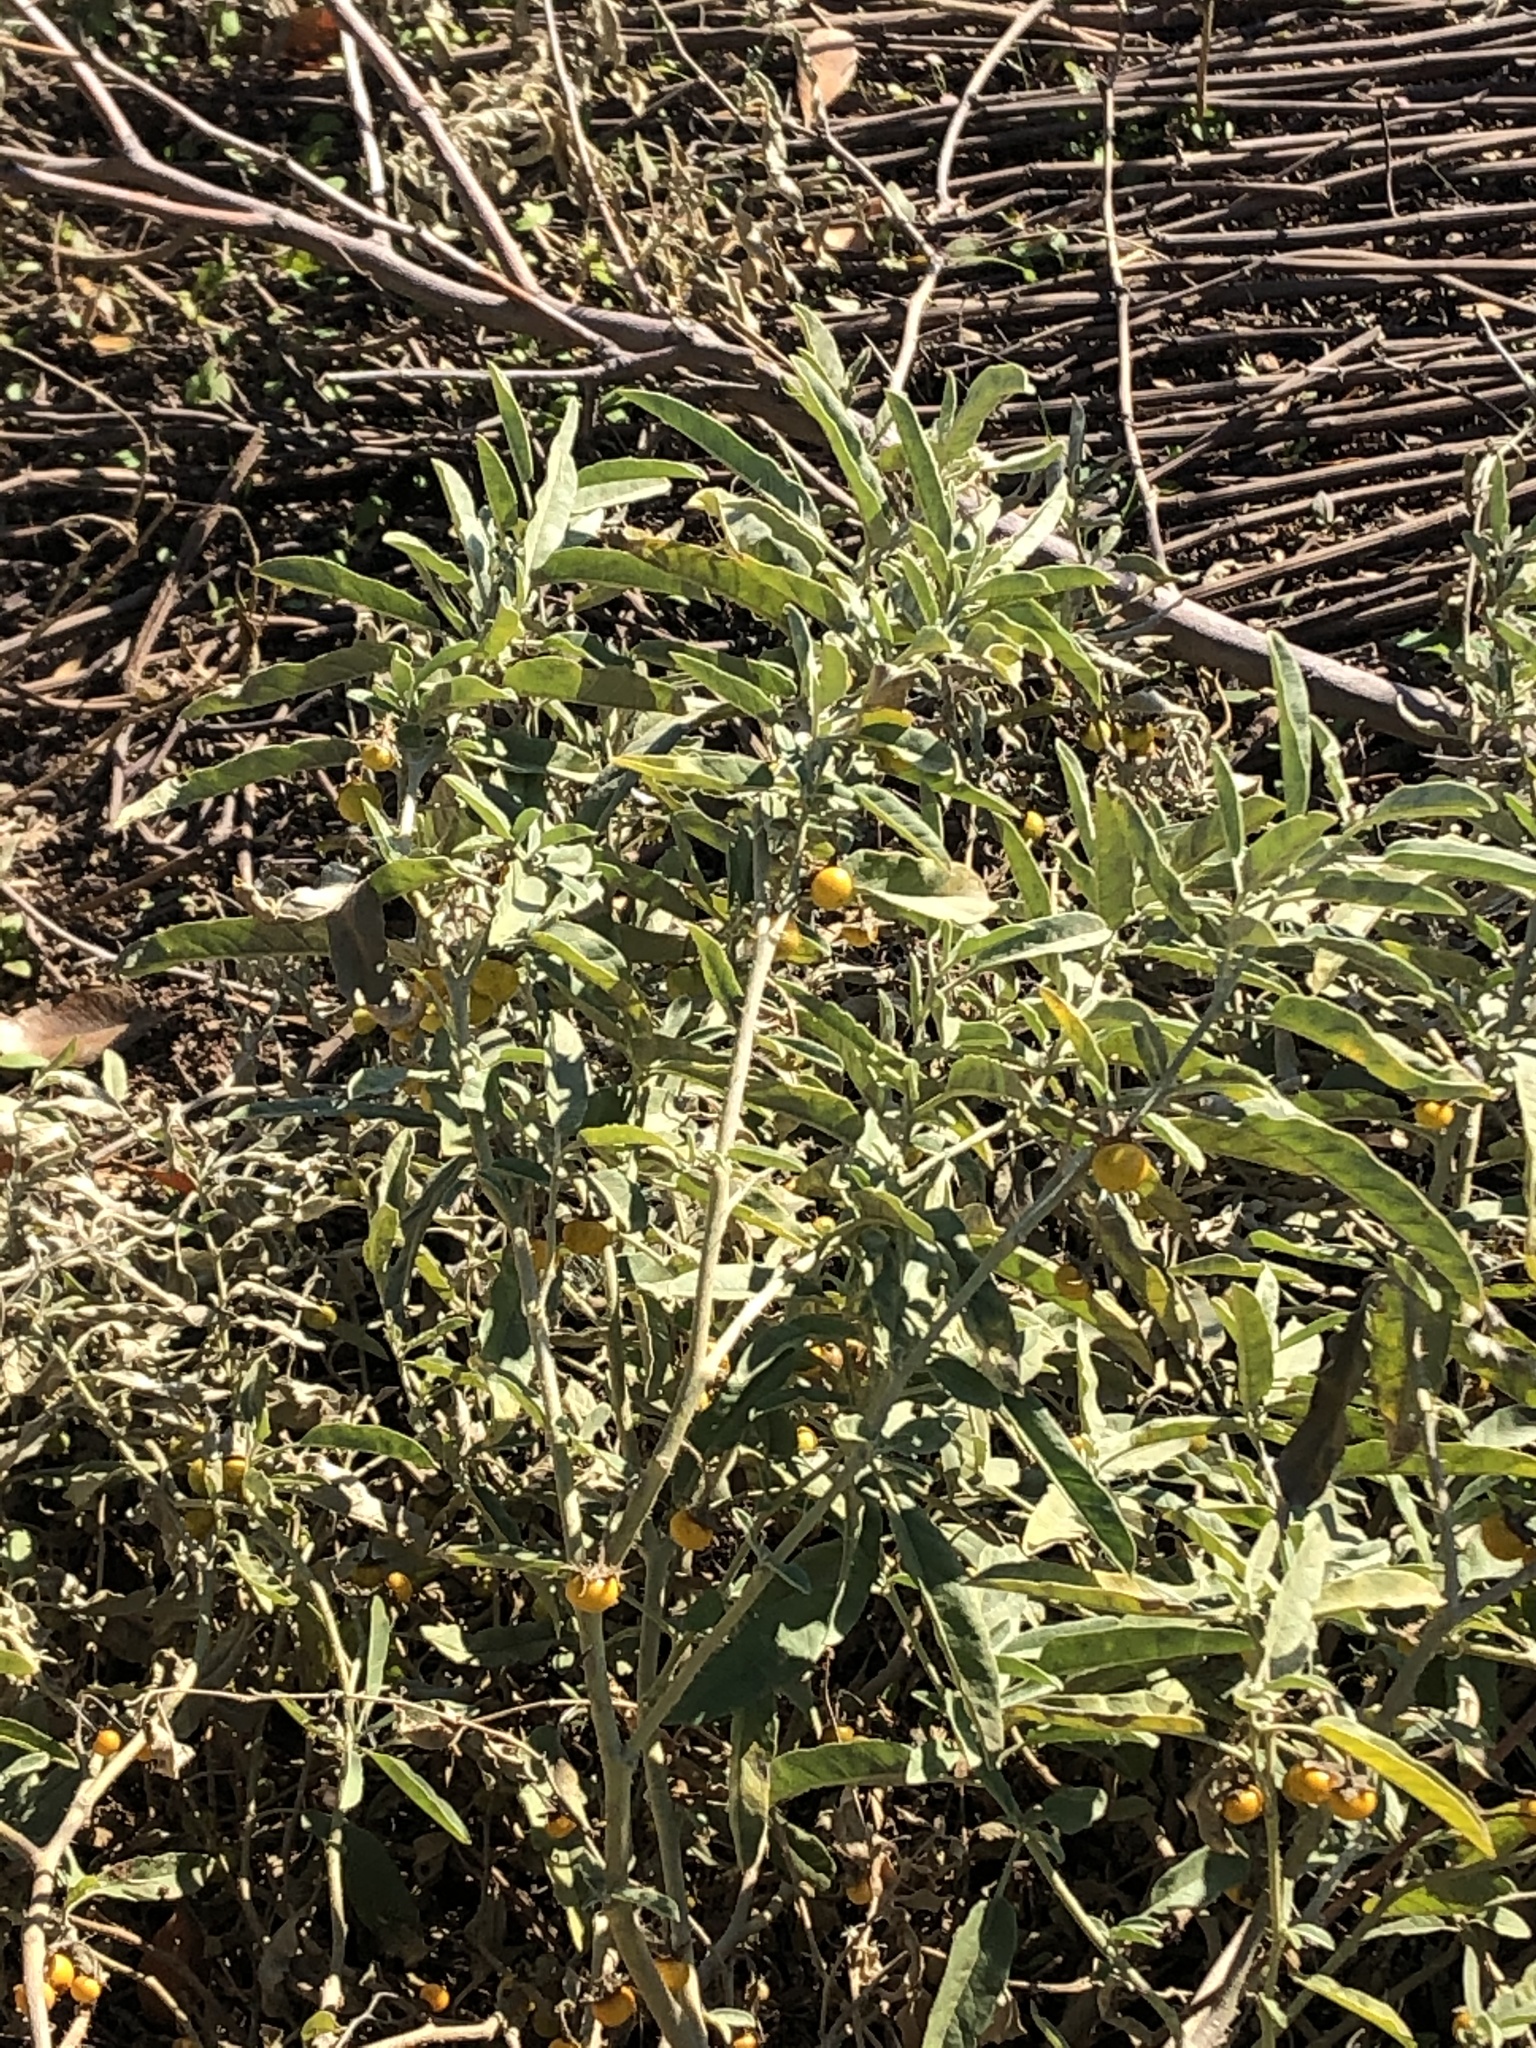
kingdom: Plantae
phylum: Tracheophyta
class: Magnoliopsida
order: Solanales
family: Solanaceae
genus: Solanum
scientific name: Solanum elaeagnifolium
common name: Silverleaf nightshade
